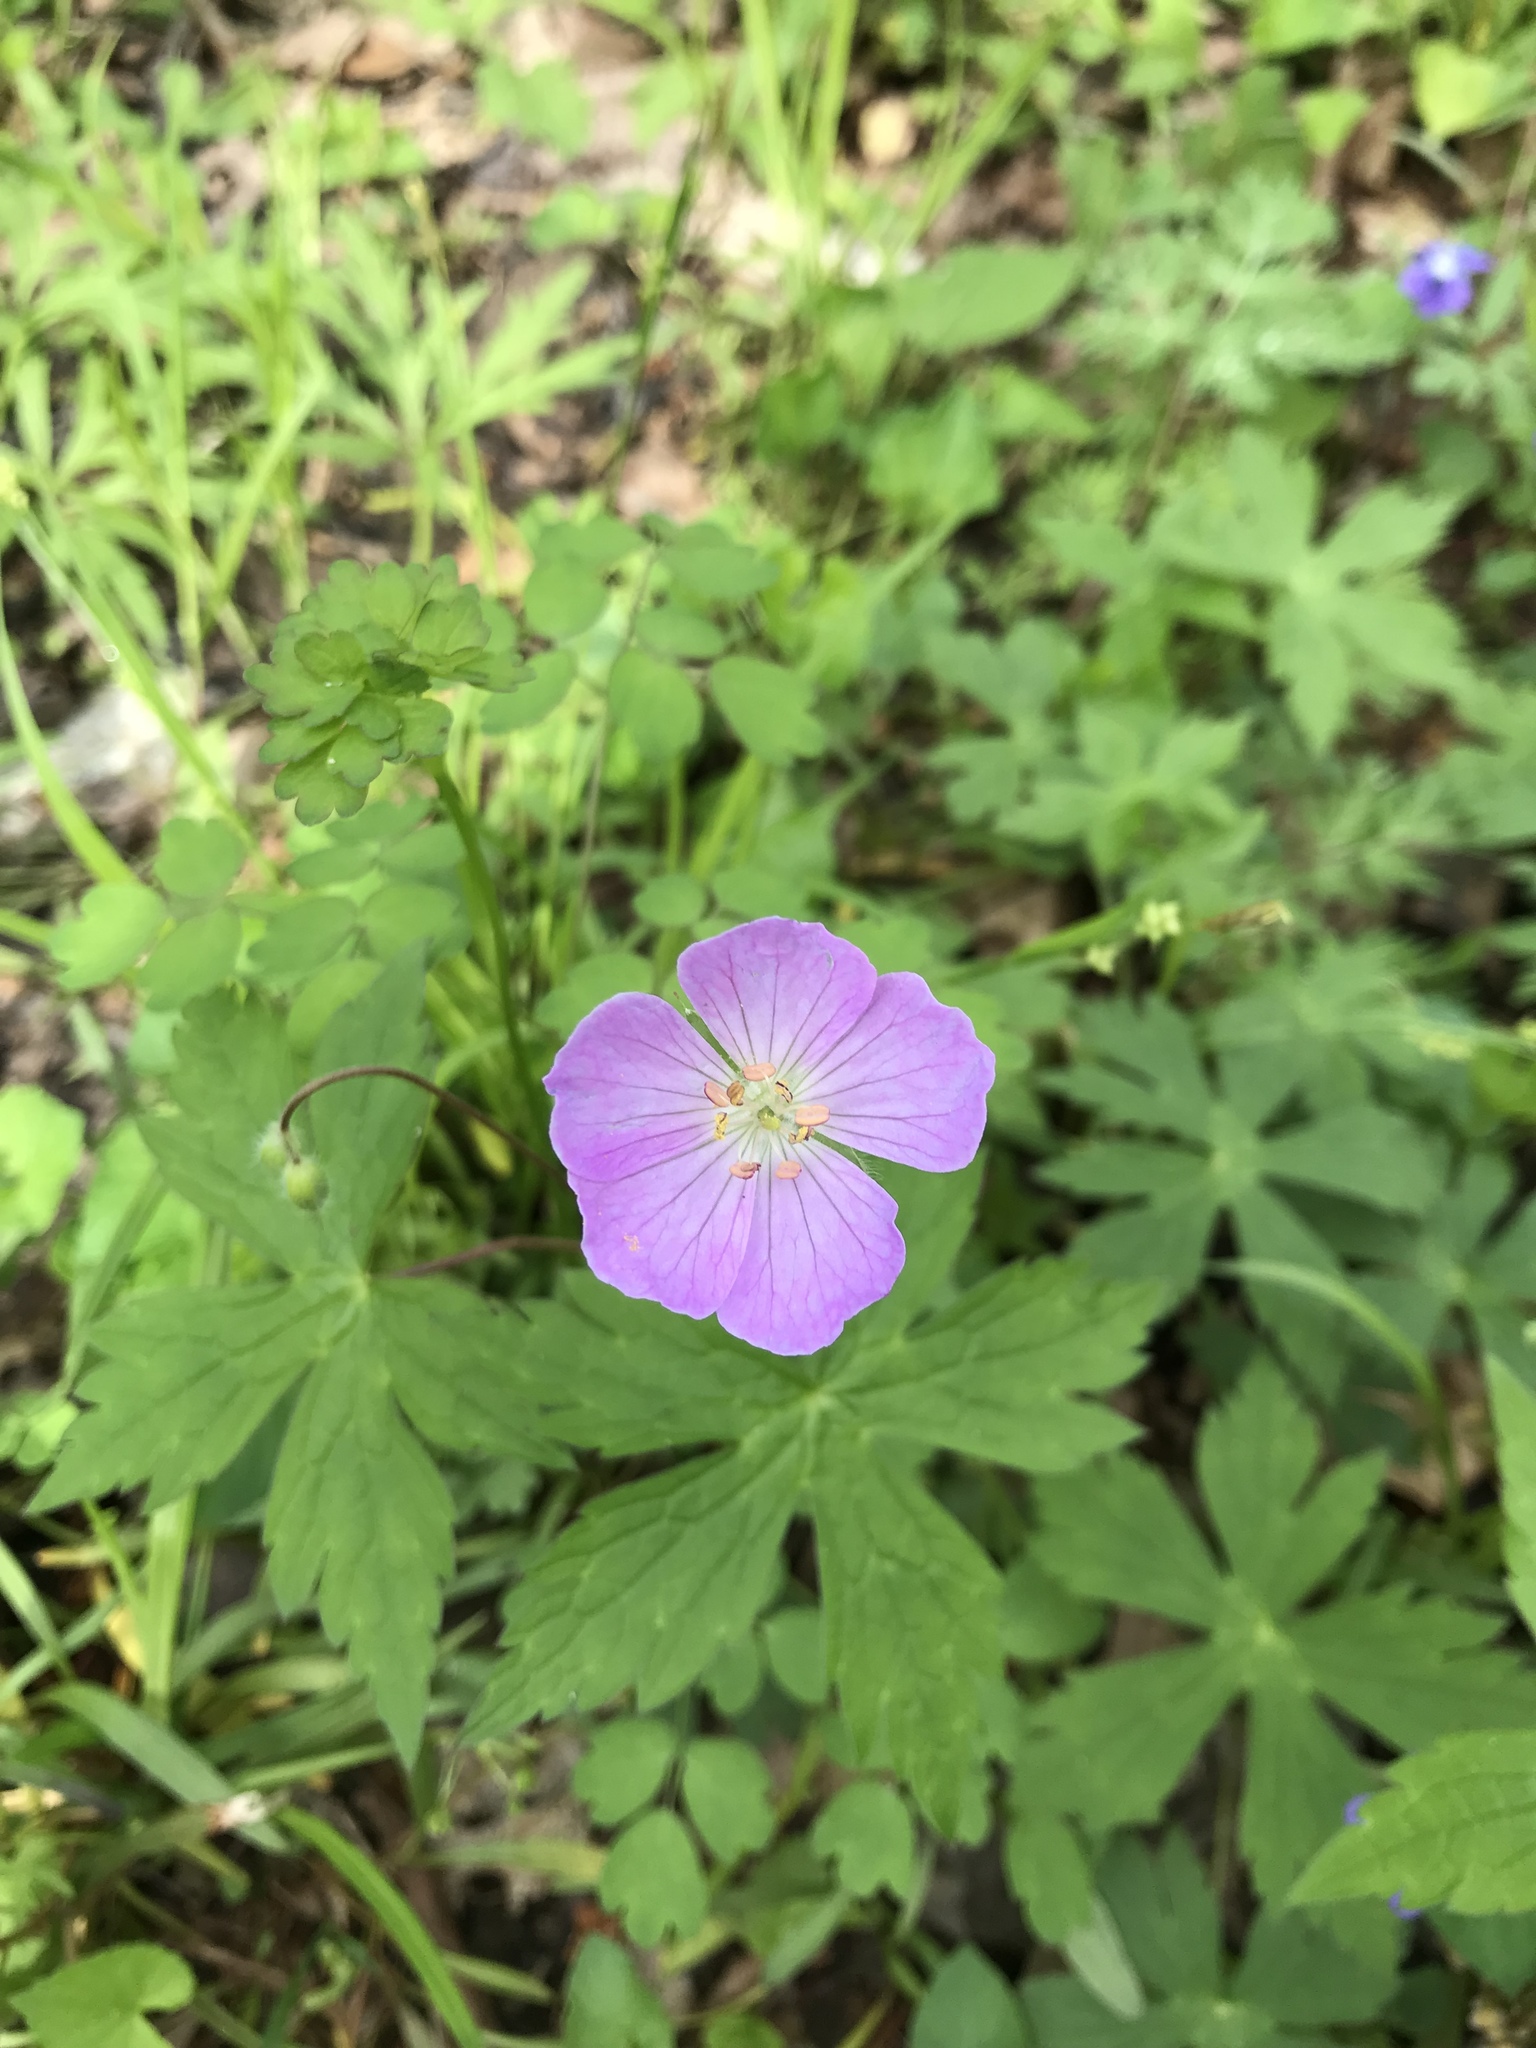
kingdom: Plantae
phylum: Tracheophyta
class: Magnoliopsida
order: Geraniales
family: Geraniaceae
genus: Geranium
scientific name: Geranium maculatum
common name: Spotted geranium
